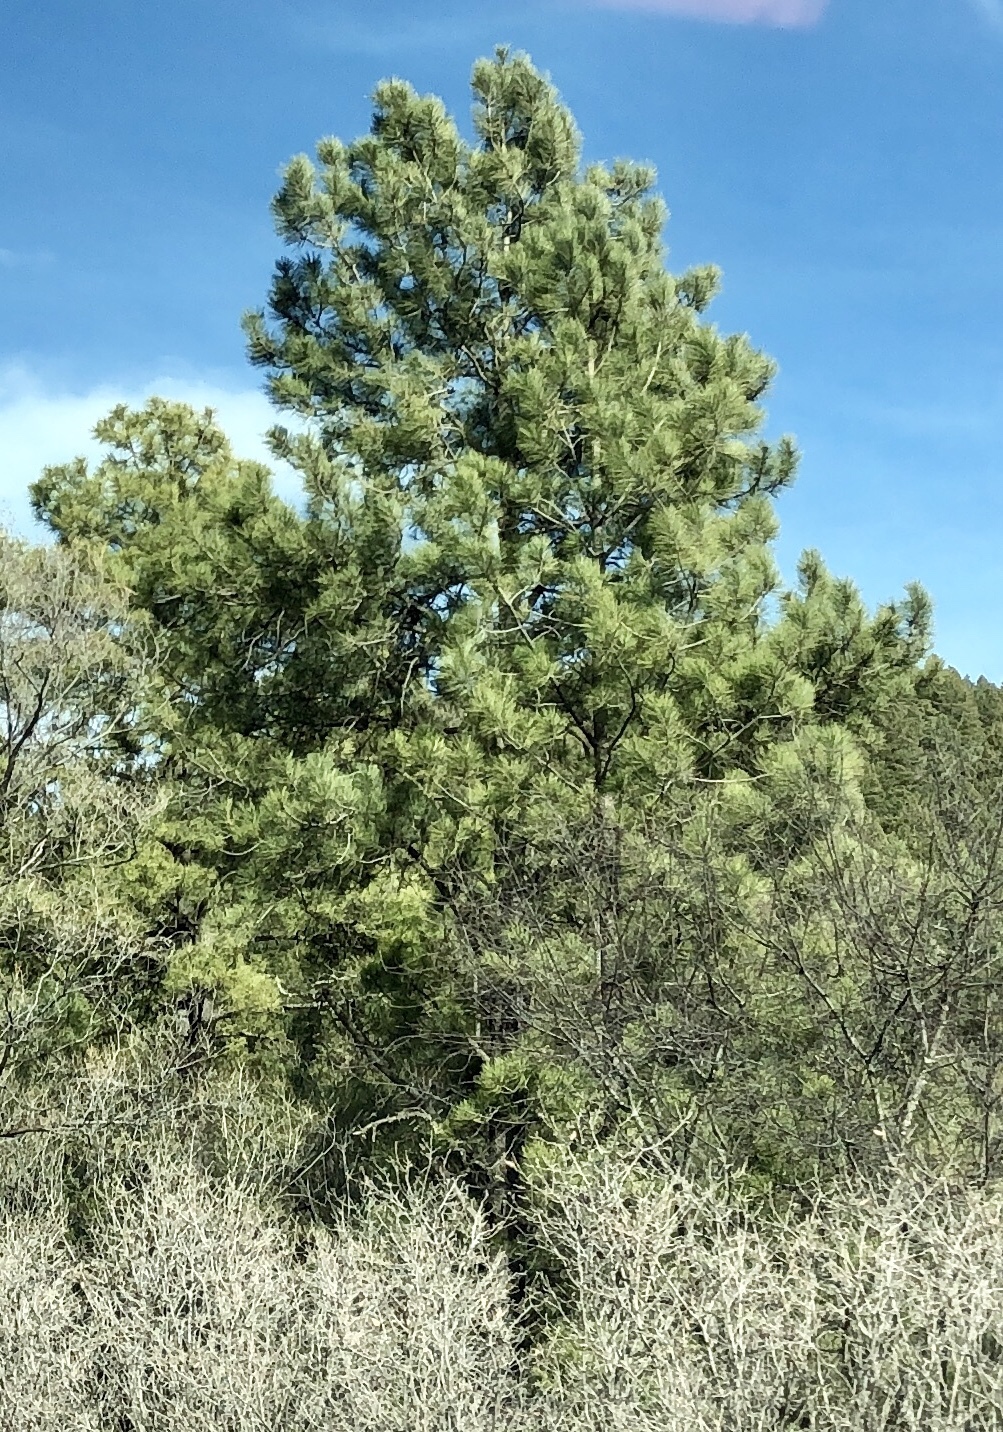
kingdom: Plantae
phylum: Tracheophyta
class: Pinopsida
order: Pinales
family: Pinaceae
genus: Pinus
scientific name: Pinus ponderosa
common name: Western yellow-pine
